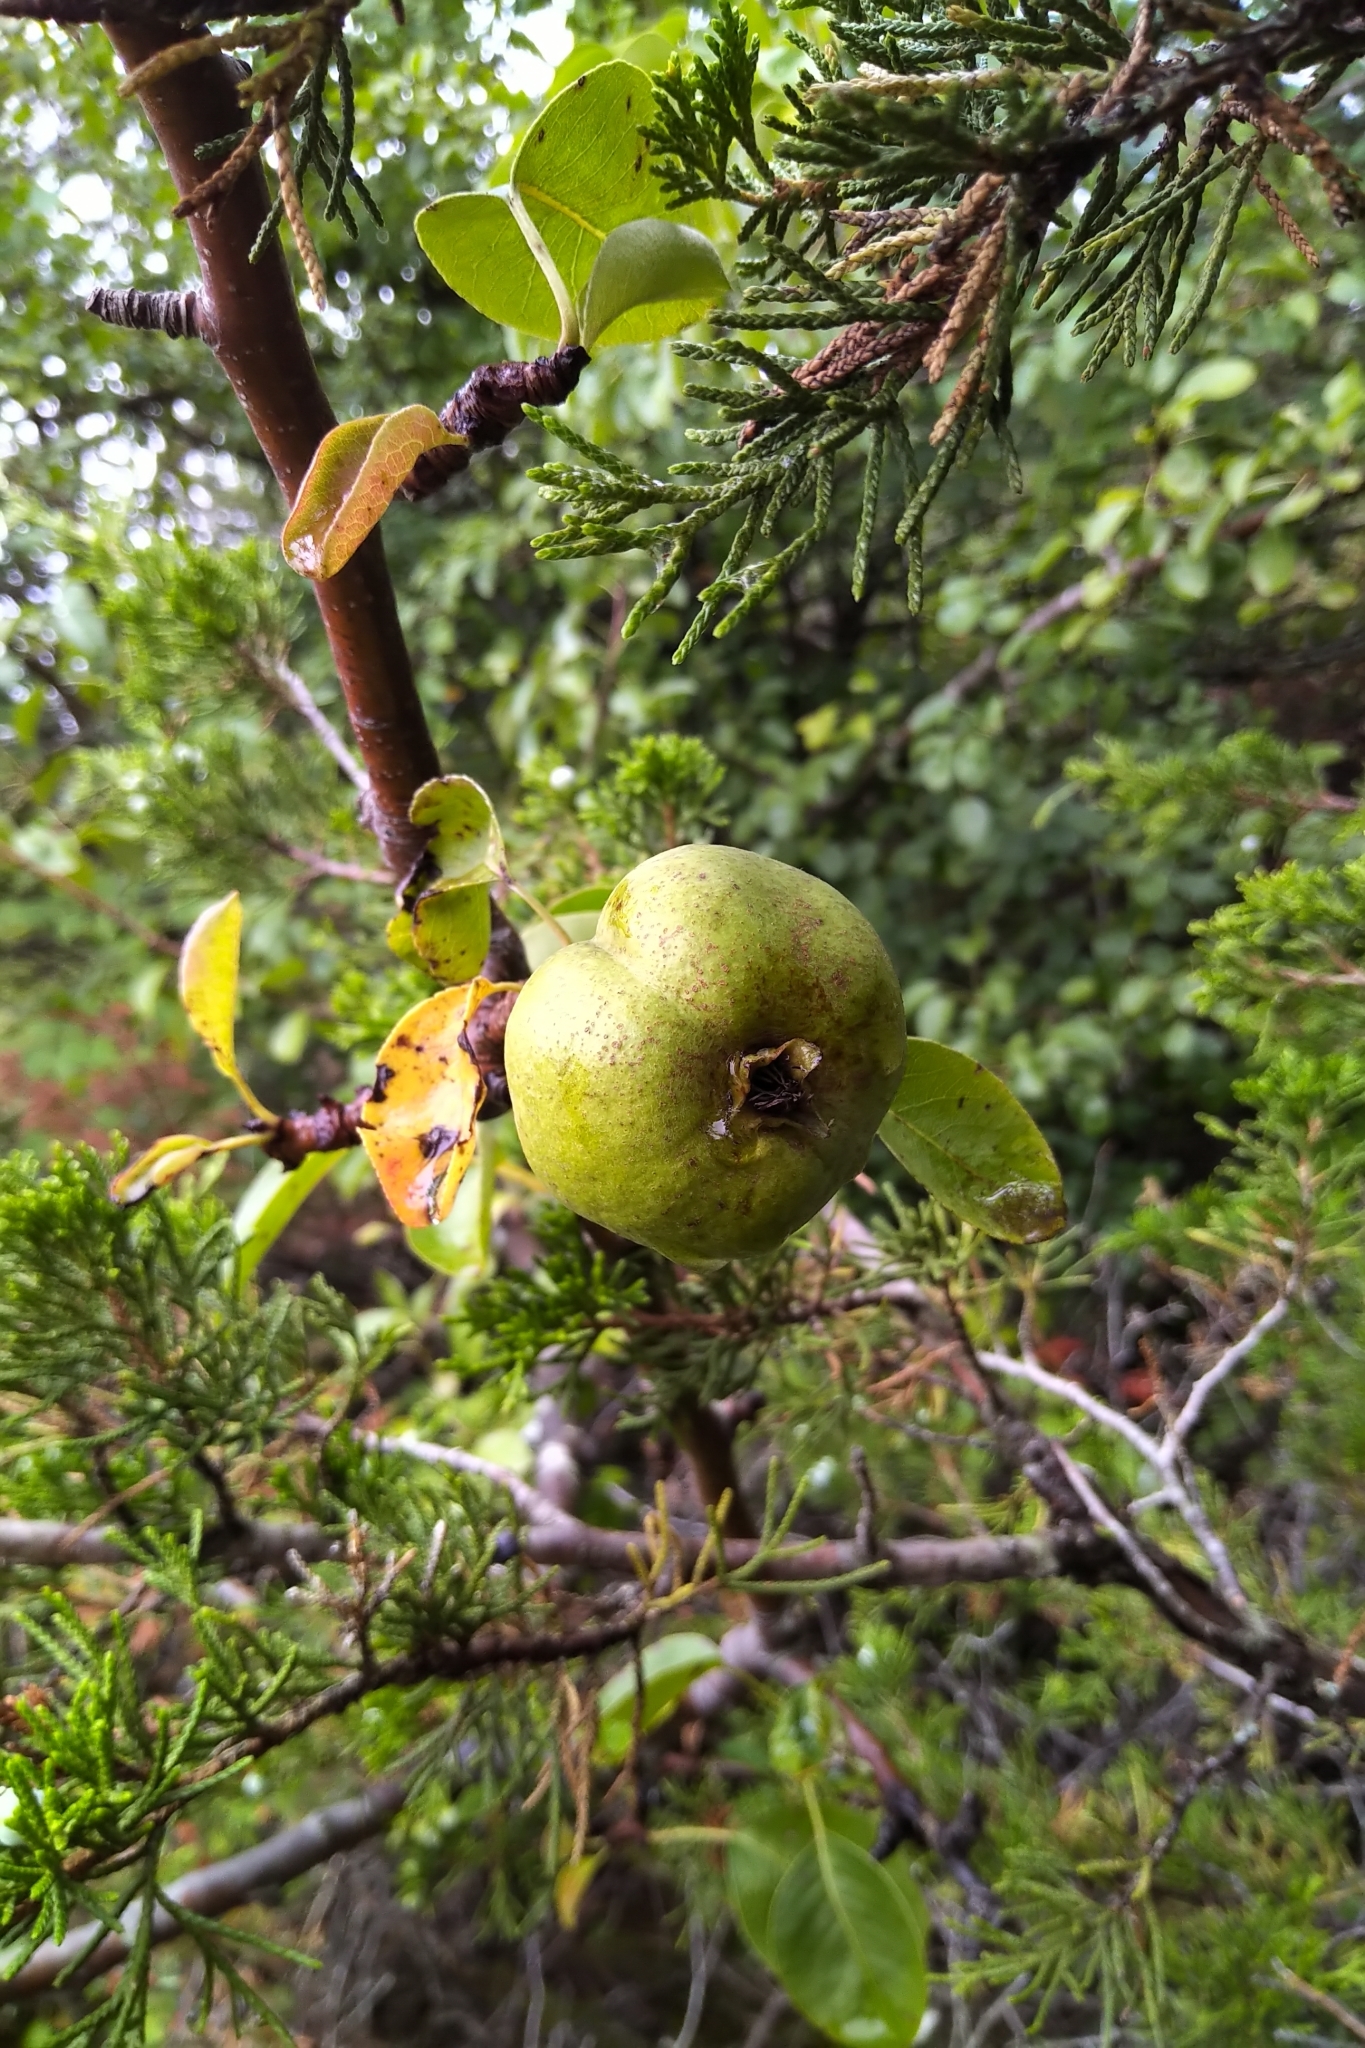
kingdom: Plantae
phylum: Tracheophyta
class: Magnoliopsida
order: Rosales
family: Rosaceae
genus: Pyrus
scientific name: Pyrus communis
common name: Pear
